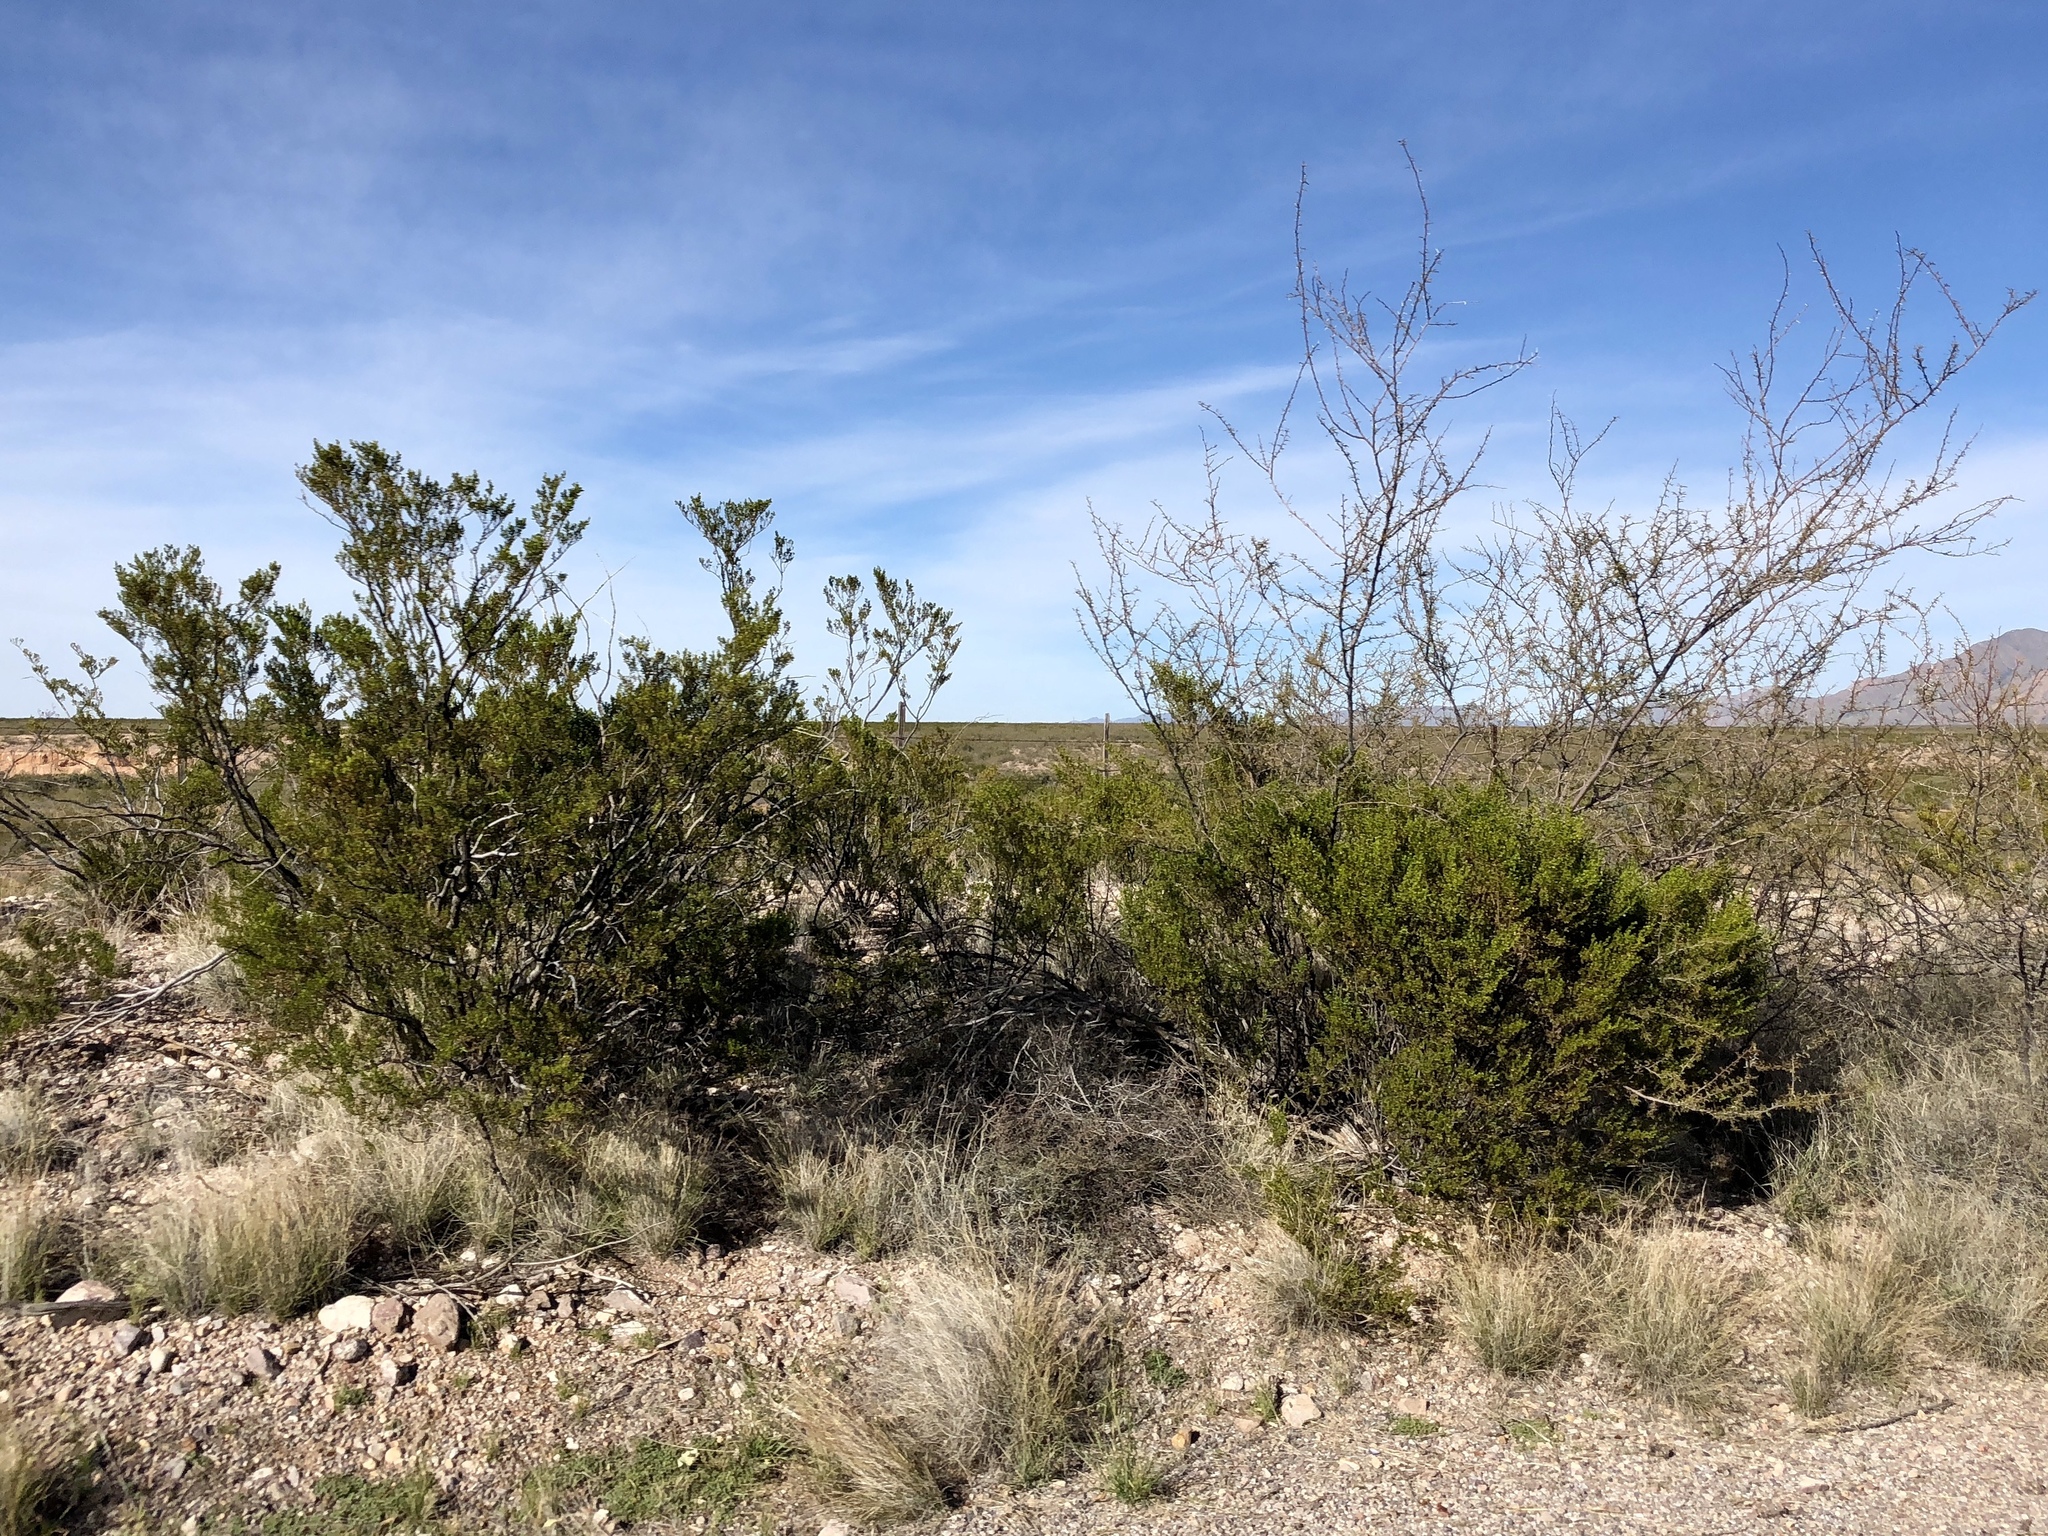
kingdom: Plantae
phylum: Tracheophyta
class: Magnoliopsida
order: Zygophyllales
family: Zygophyllaceae
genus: Larrea
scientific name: Larrea tridentata
